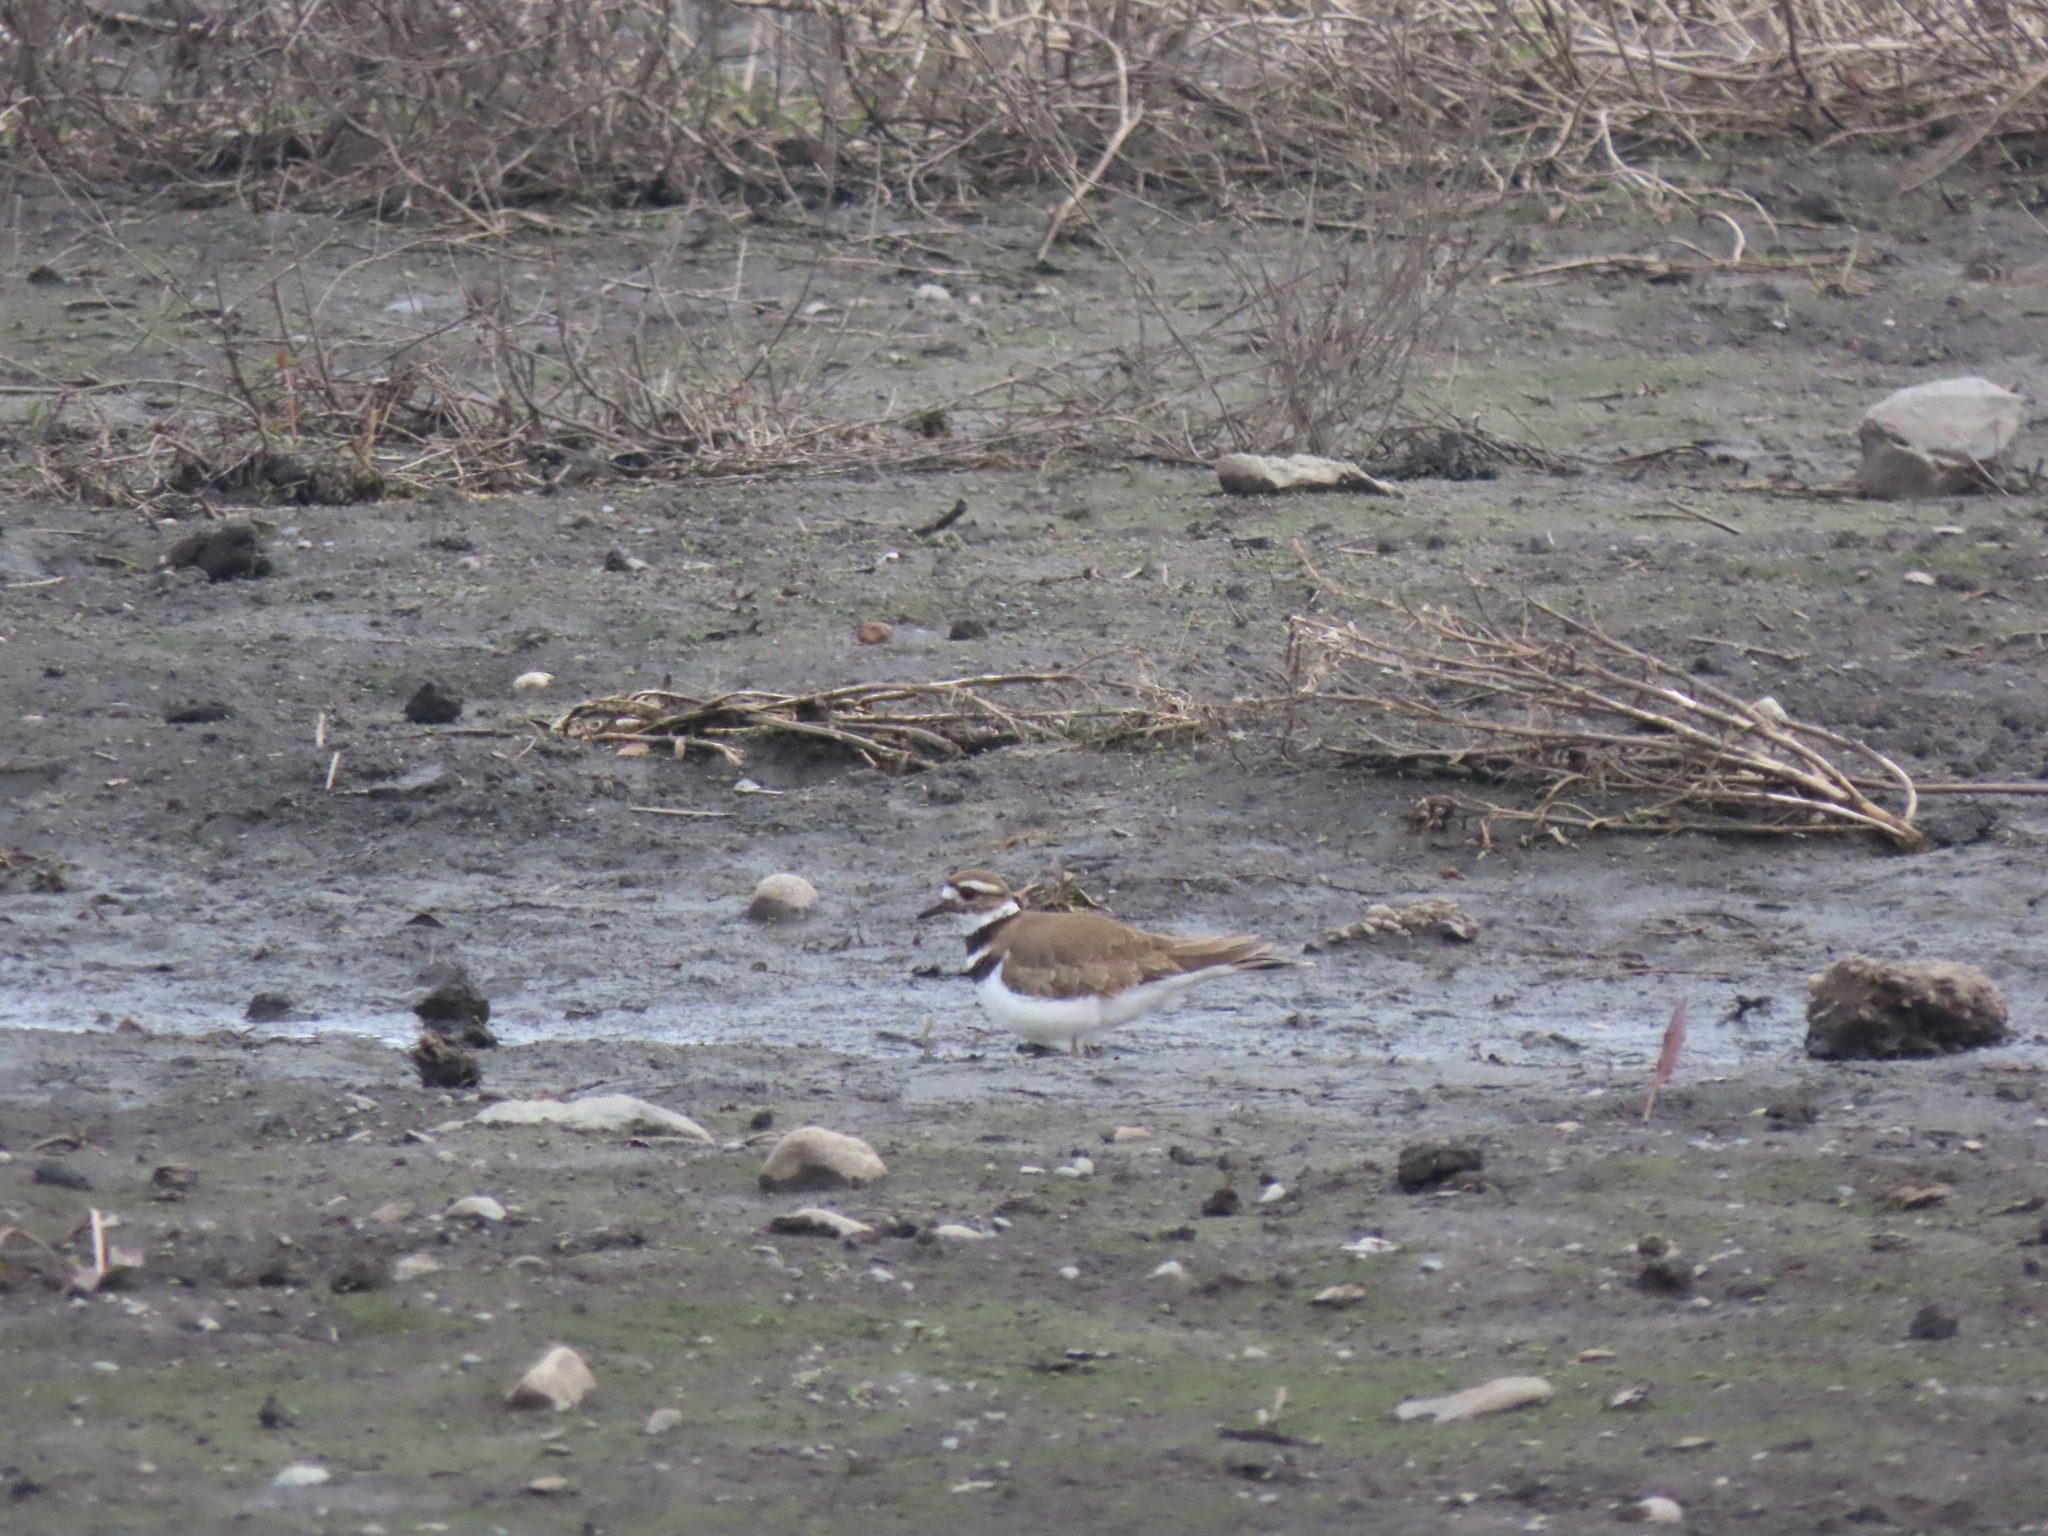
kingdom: Animalia
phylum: Chordata
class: Aves
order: Charadriiformes
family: Charadriidae
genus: Charadrius
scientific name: Charadrius vociferus
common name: Killdeer
